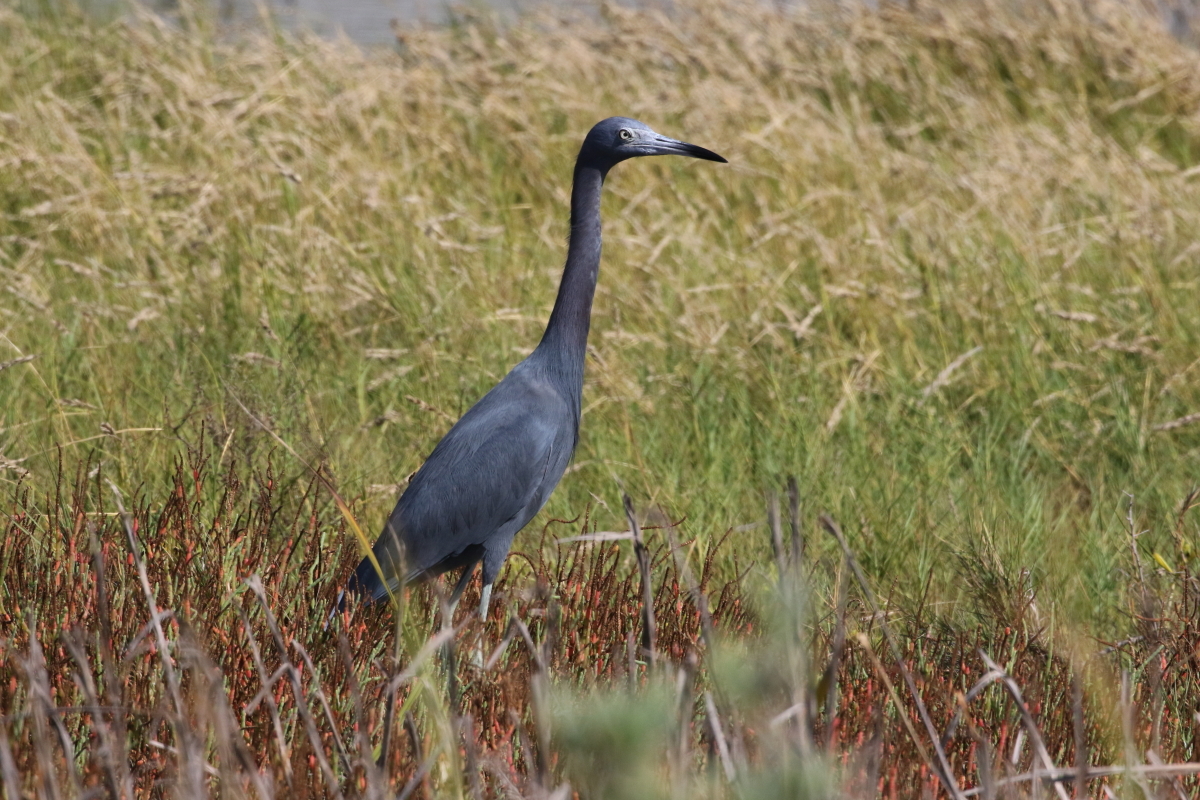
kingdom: Animalia
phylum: Chordata
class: Aves
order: Pelecaniformes
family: Ardeidae
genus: Egretta
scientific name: Egretta caerulea
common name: Little blue heron
